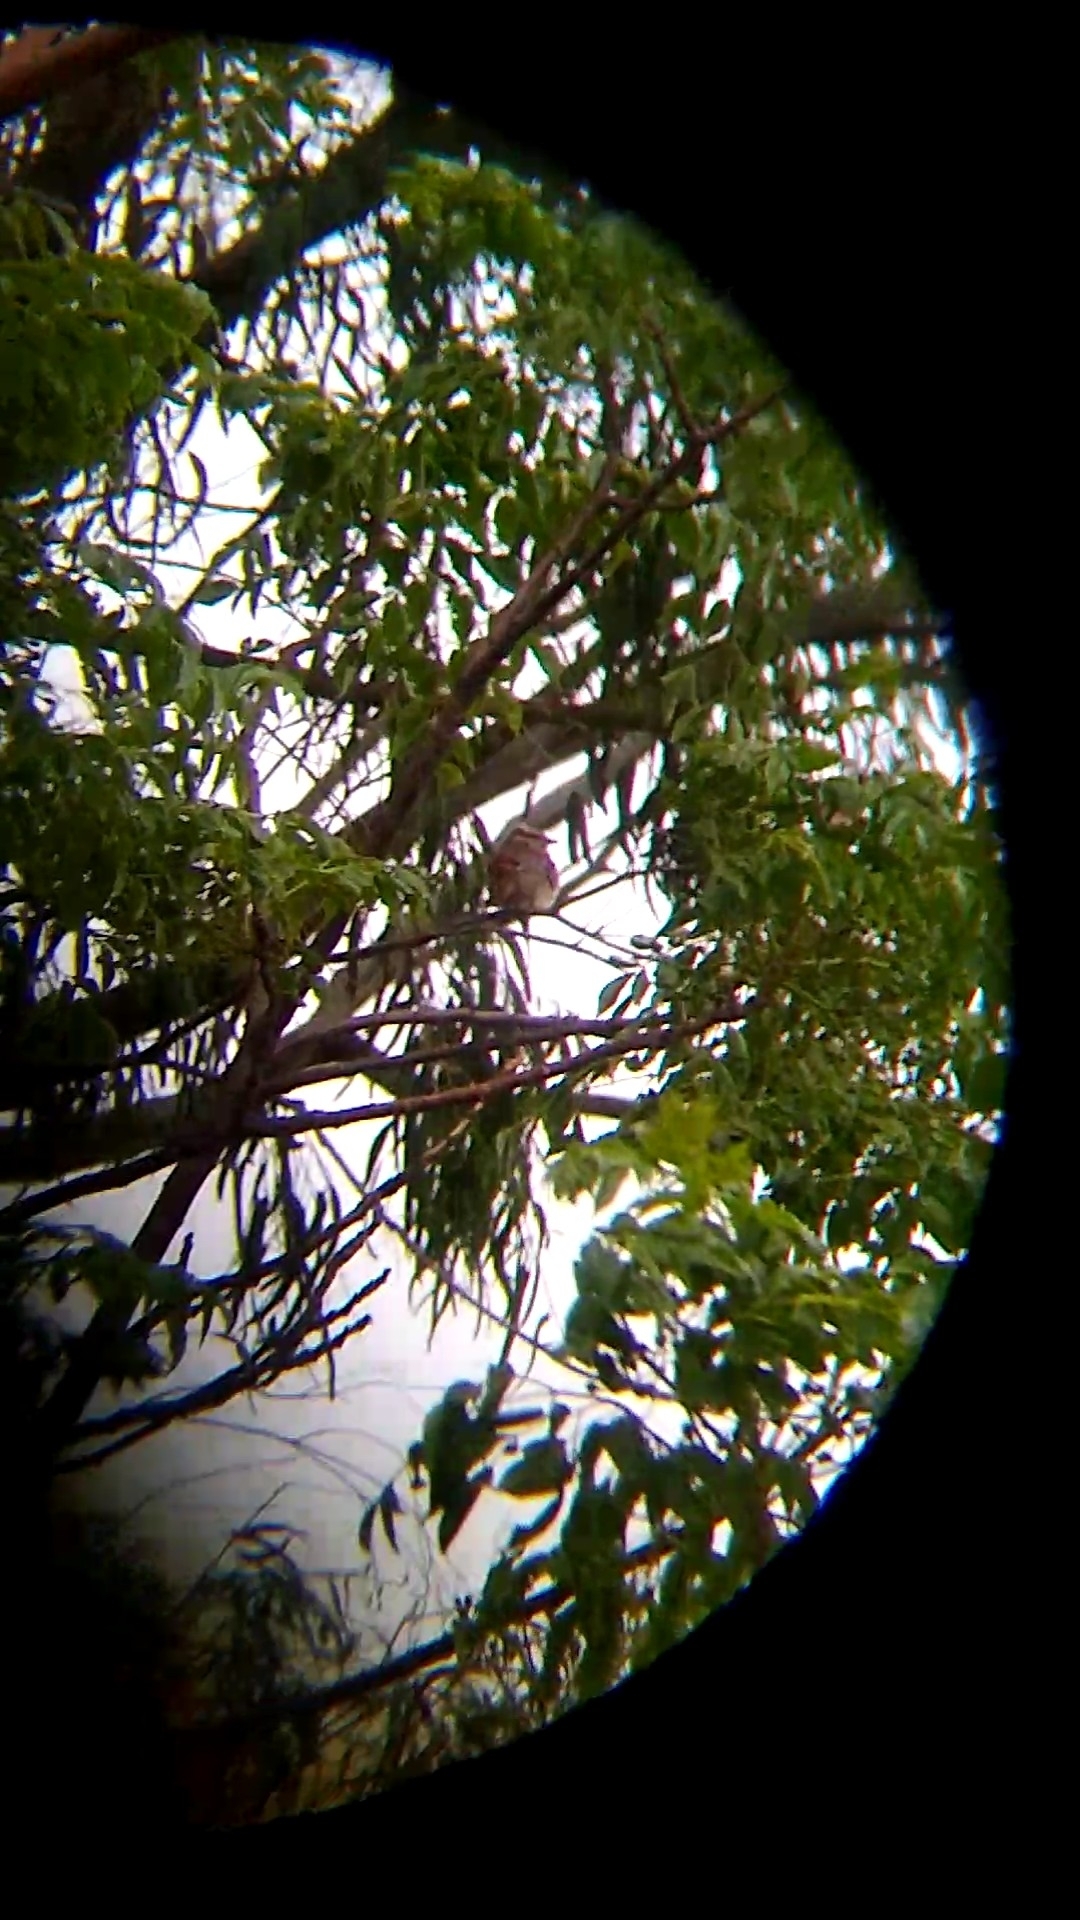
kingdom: Animalia
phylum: Chordata
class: Aves
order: Passeriformes
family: Tyrannidae
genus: Empidonomus
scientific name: Empidonomus varius
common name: Variegated flycatcher
